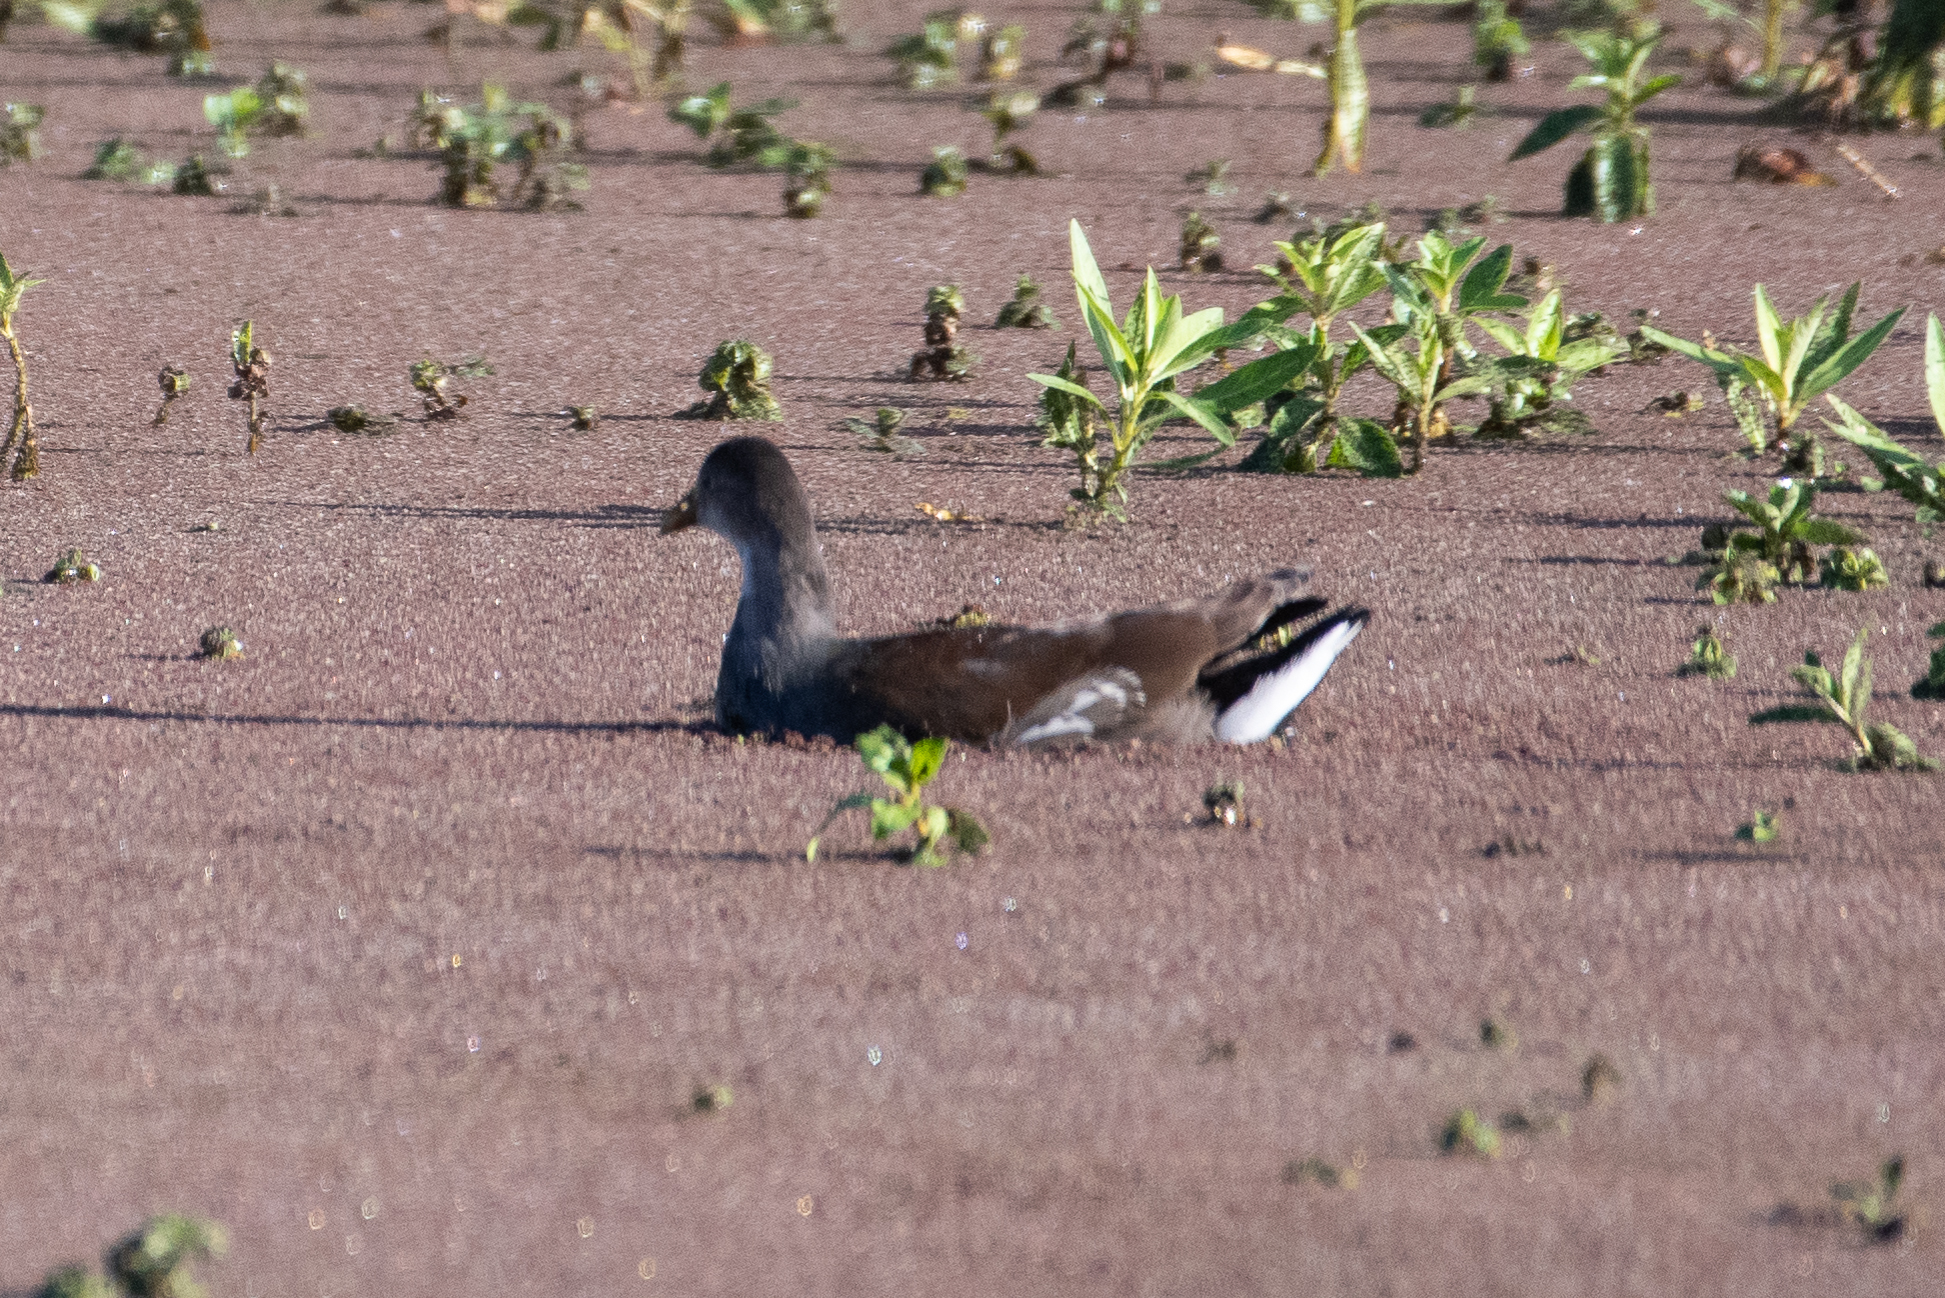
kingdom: Animalia
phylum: Chordata
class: Aves
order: Gruiformes
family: Rallidae
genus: Gallinula
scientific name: Gallinula chloropus
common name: Common moorhen
